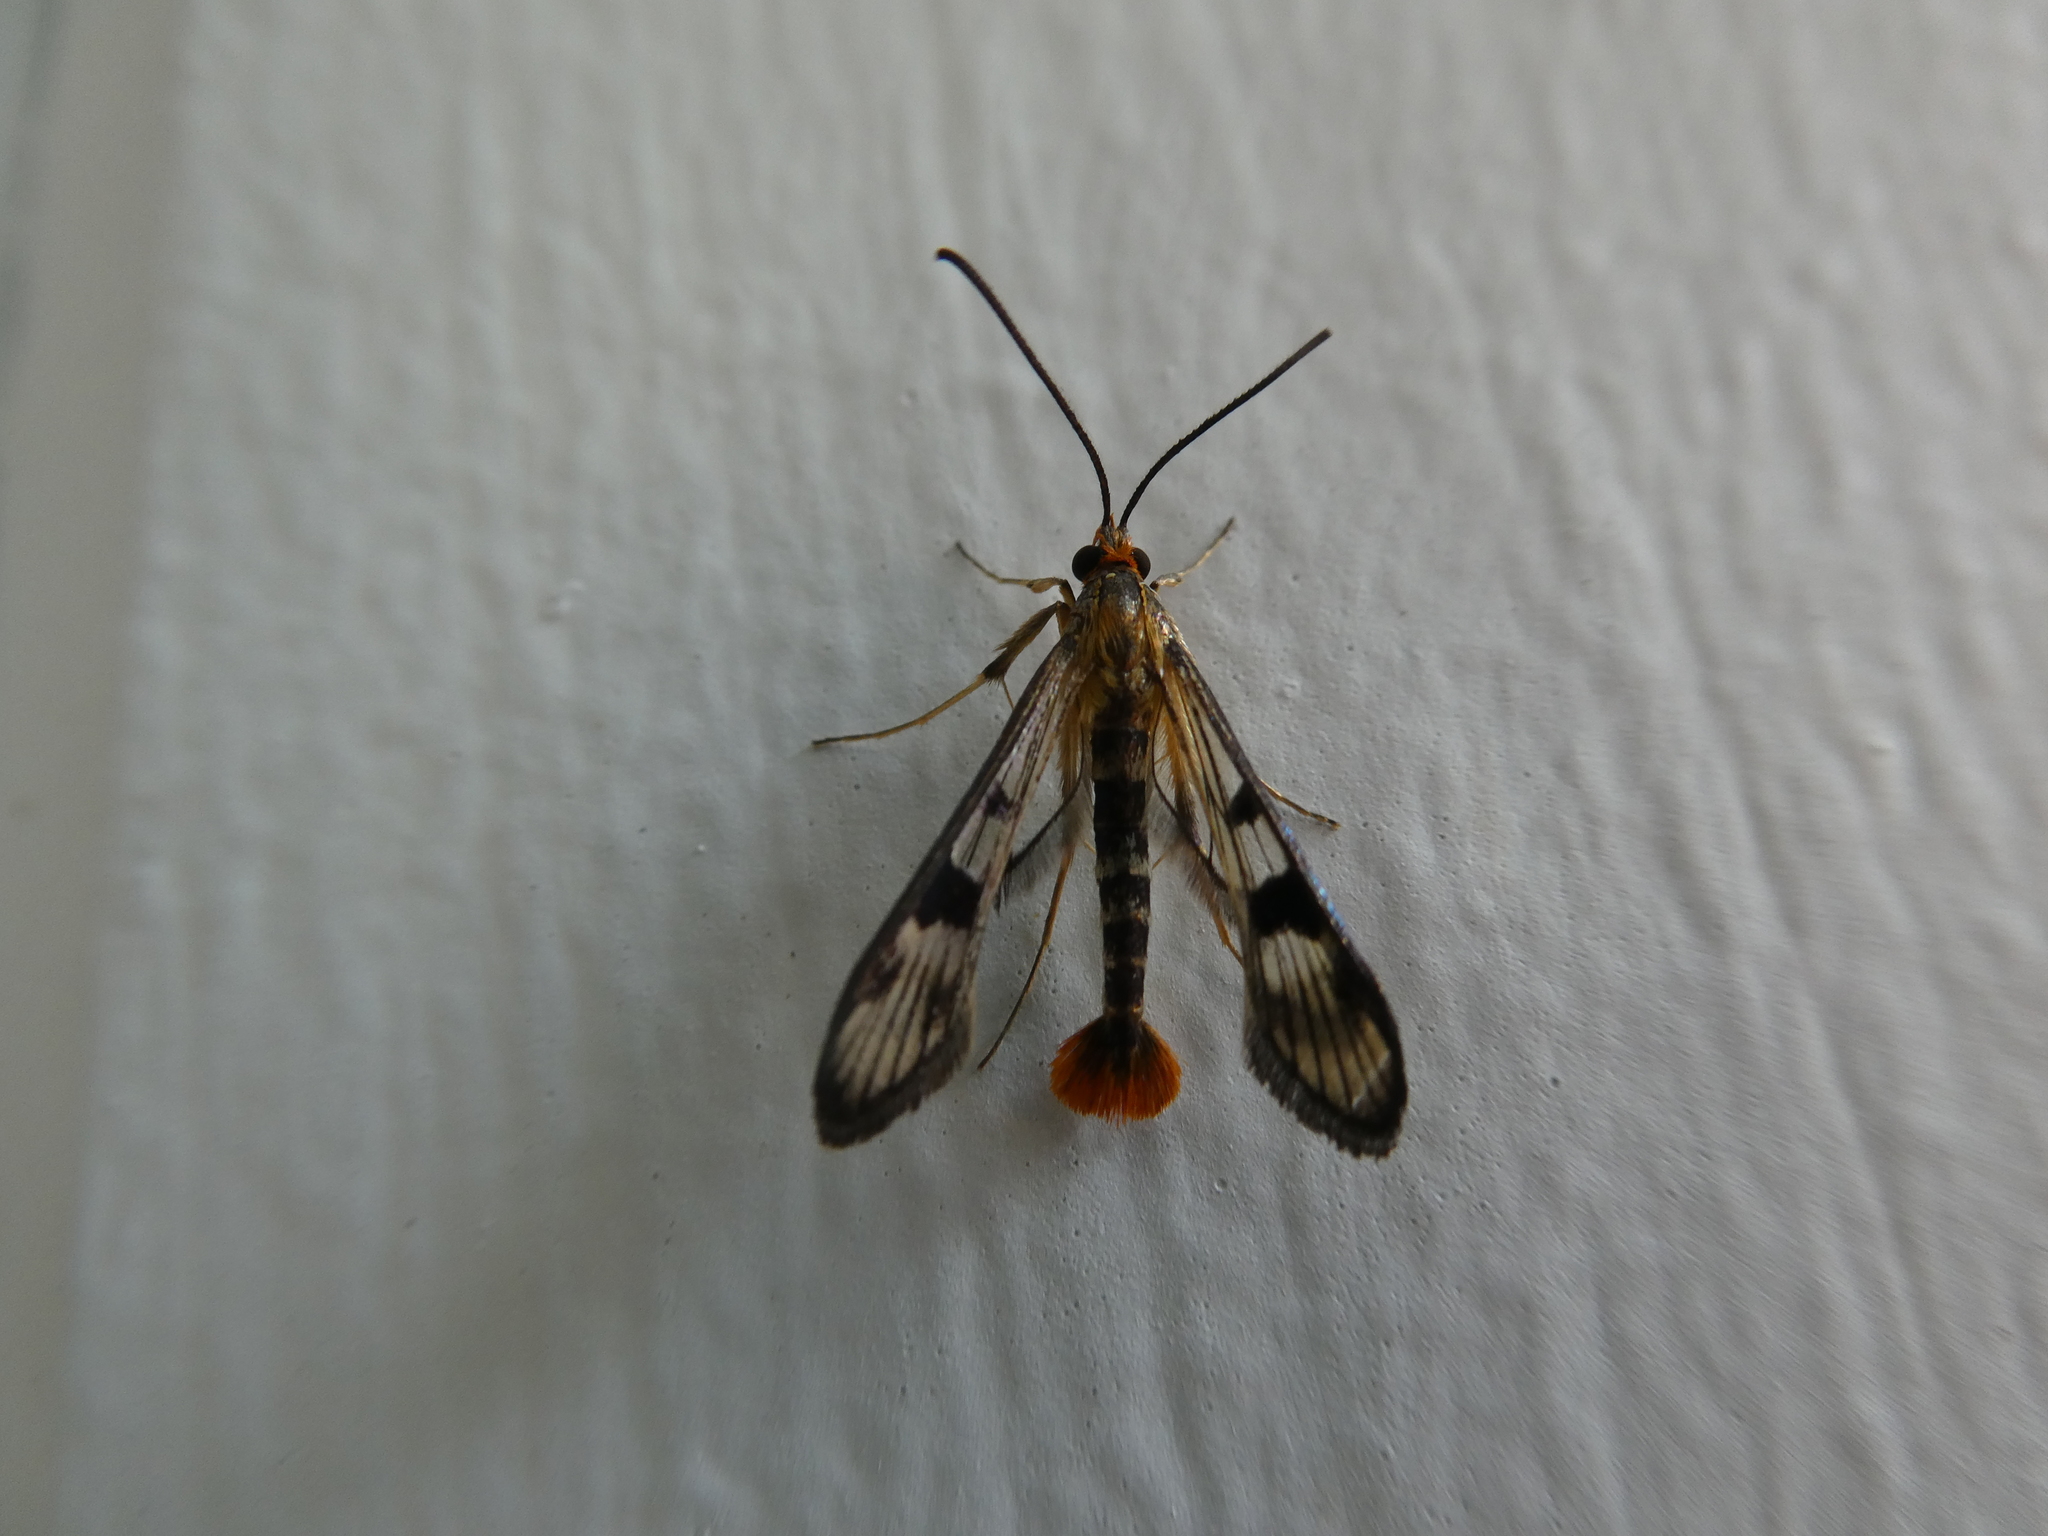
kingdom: Animalia
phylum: Arthropoda
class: Insecta
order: Lepidoptera
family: Sesiidae
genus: Synanthedon
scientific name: Synanthedon acerni
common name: Maple callus borer moth
